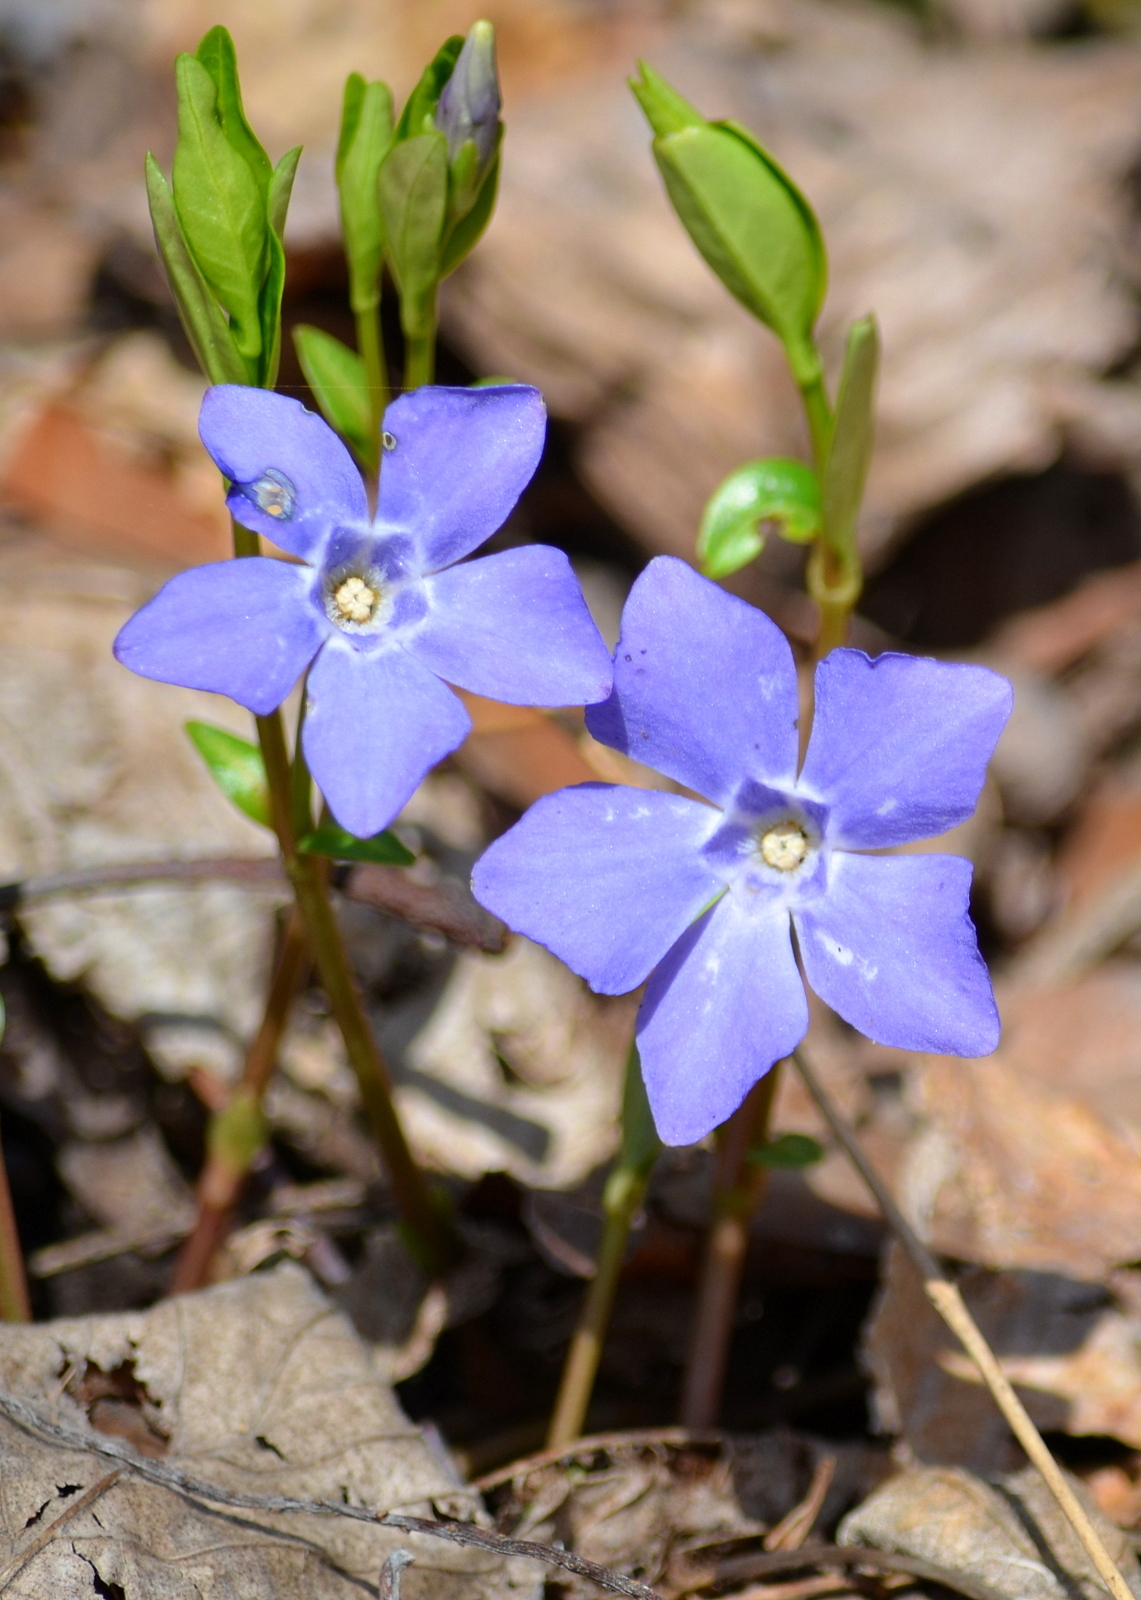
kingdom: Plantae
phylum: Tracheophyta
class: Magnoliopsida
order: Gentianales
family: Apocynaceae
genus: Vinca
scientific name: Vinca minor
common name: Lesser periwinkle
